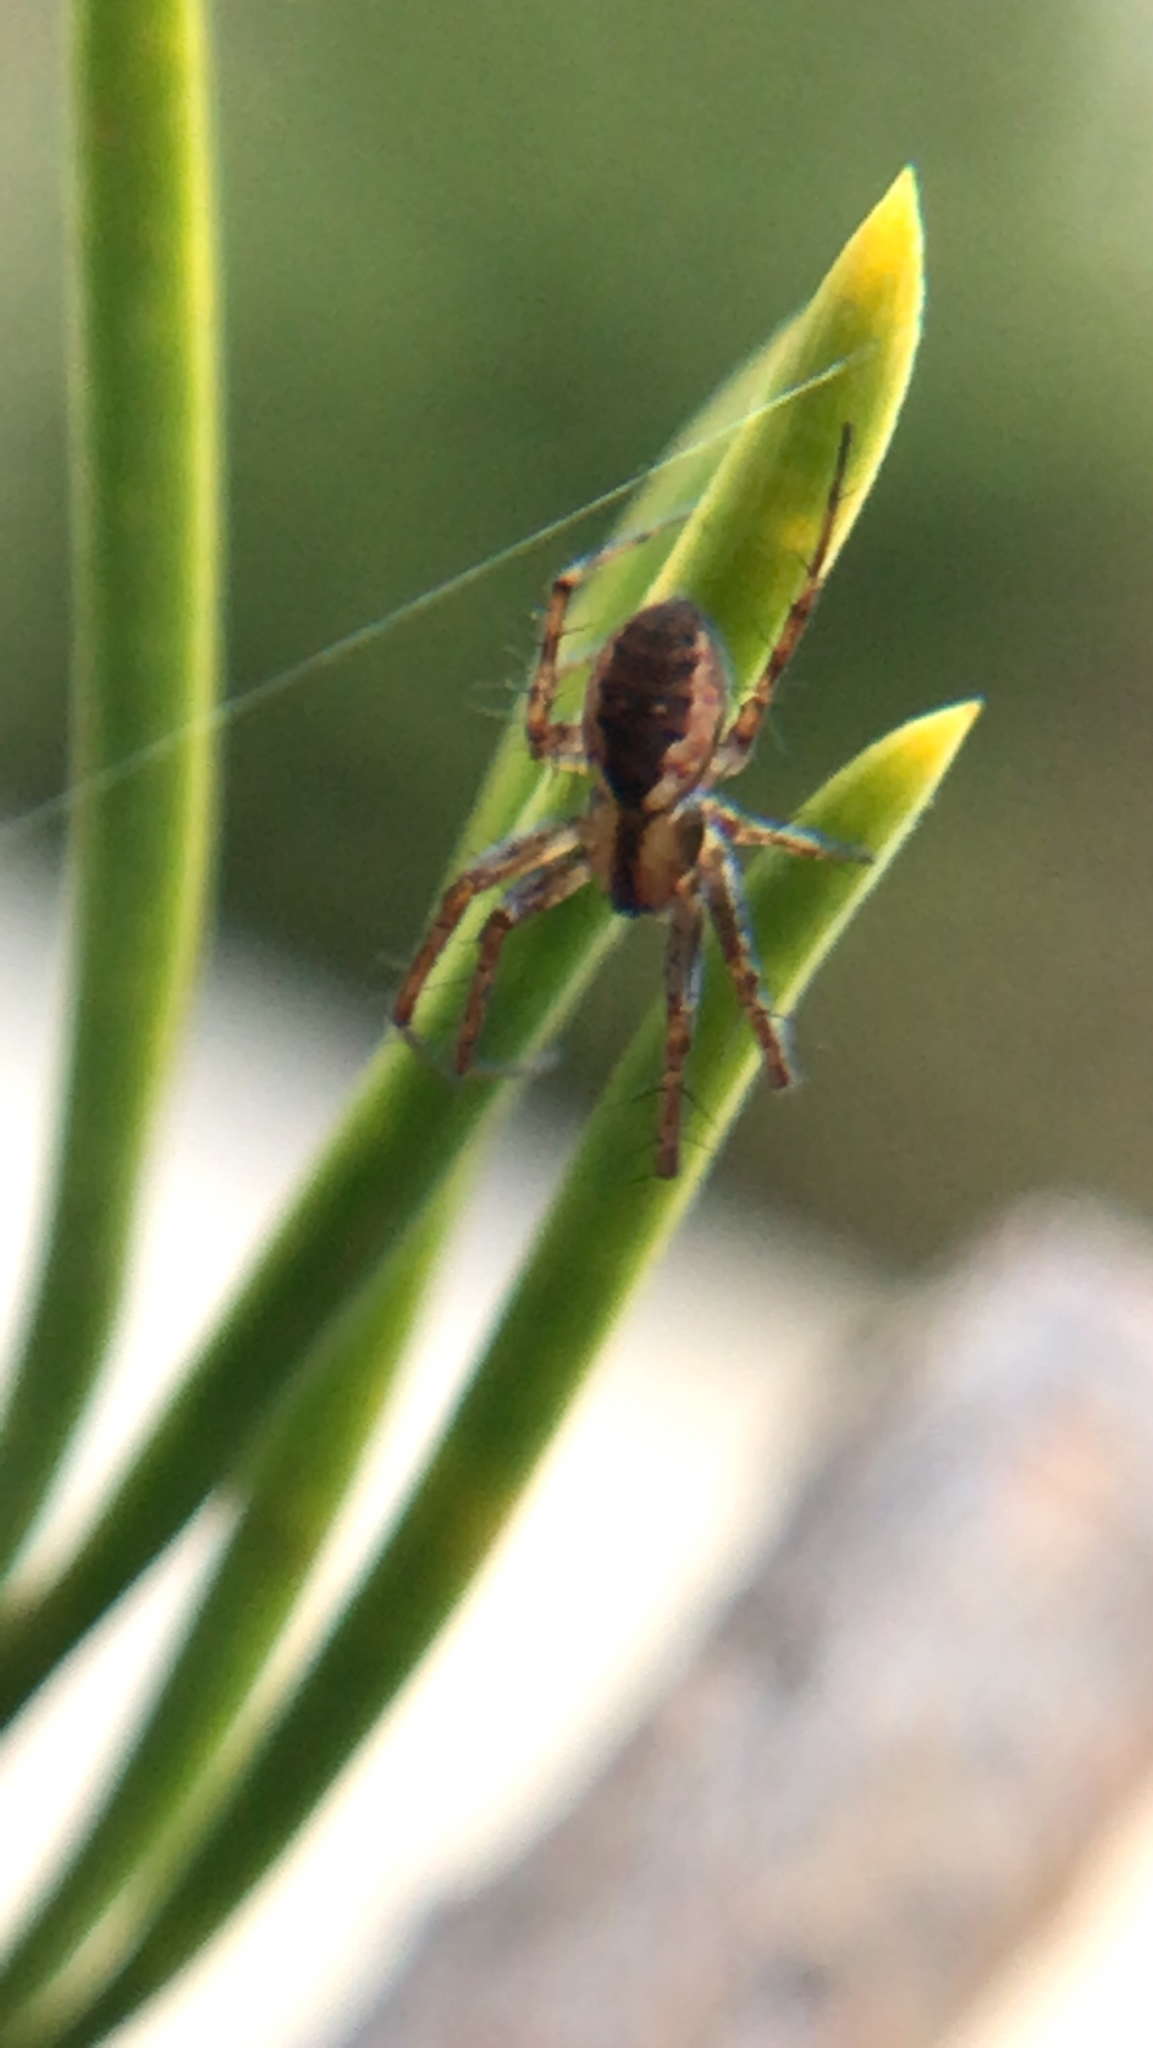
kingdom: Animalia
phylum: Arthropoda
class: Arachnida
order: Araneae
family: Araneidae
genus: Mangora
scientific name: Mangora placida
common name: Tuft-legged orbweaver
